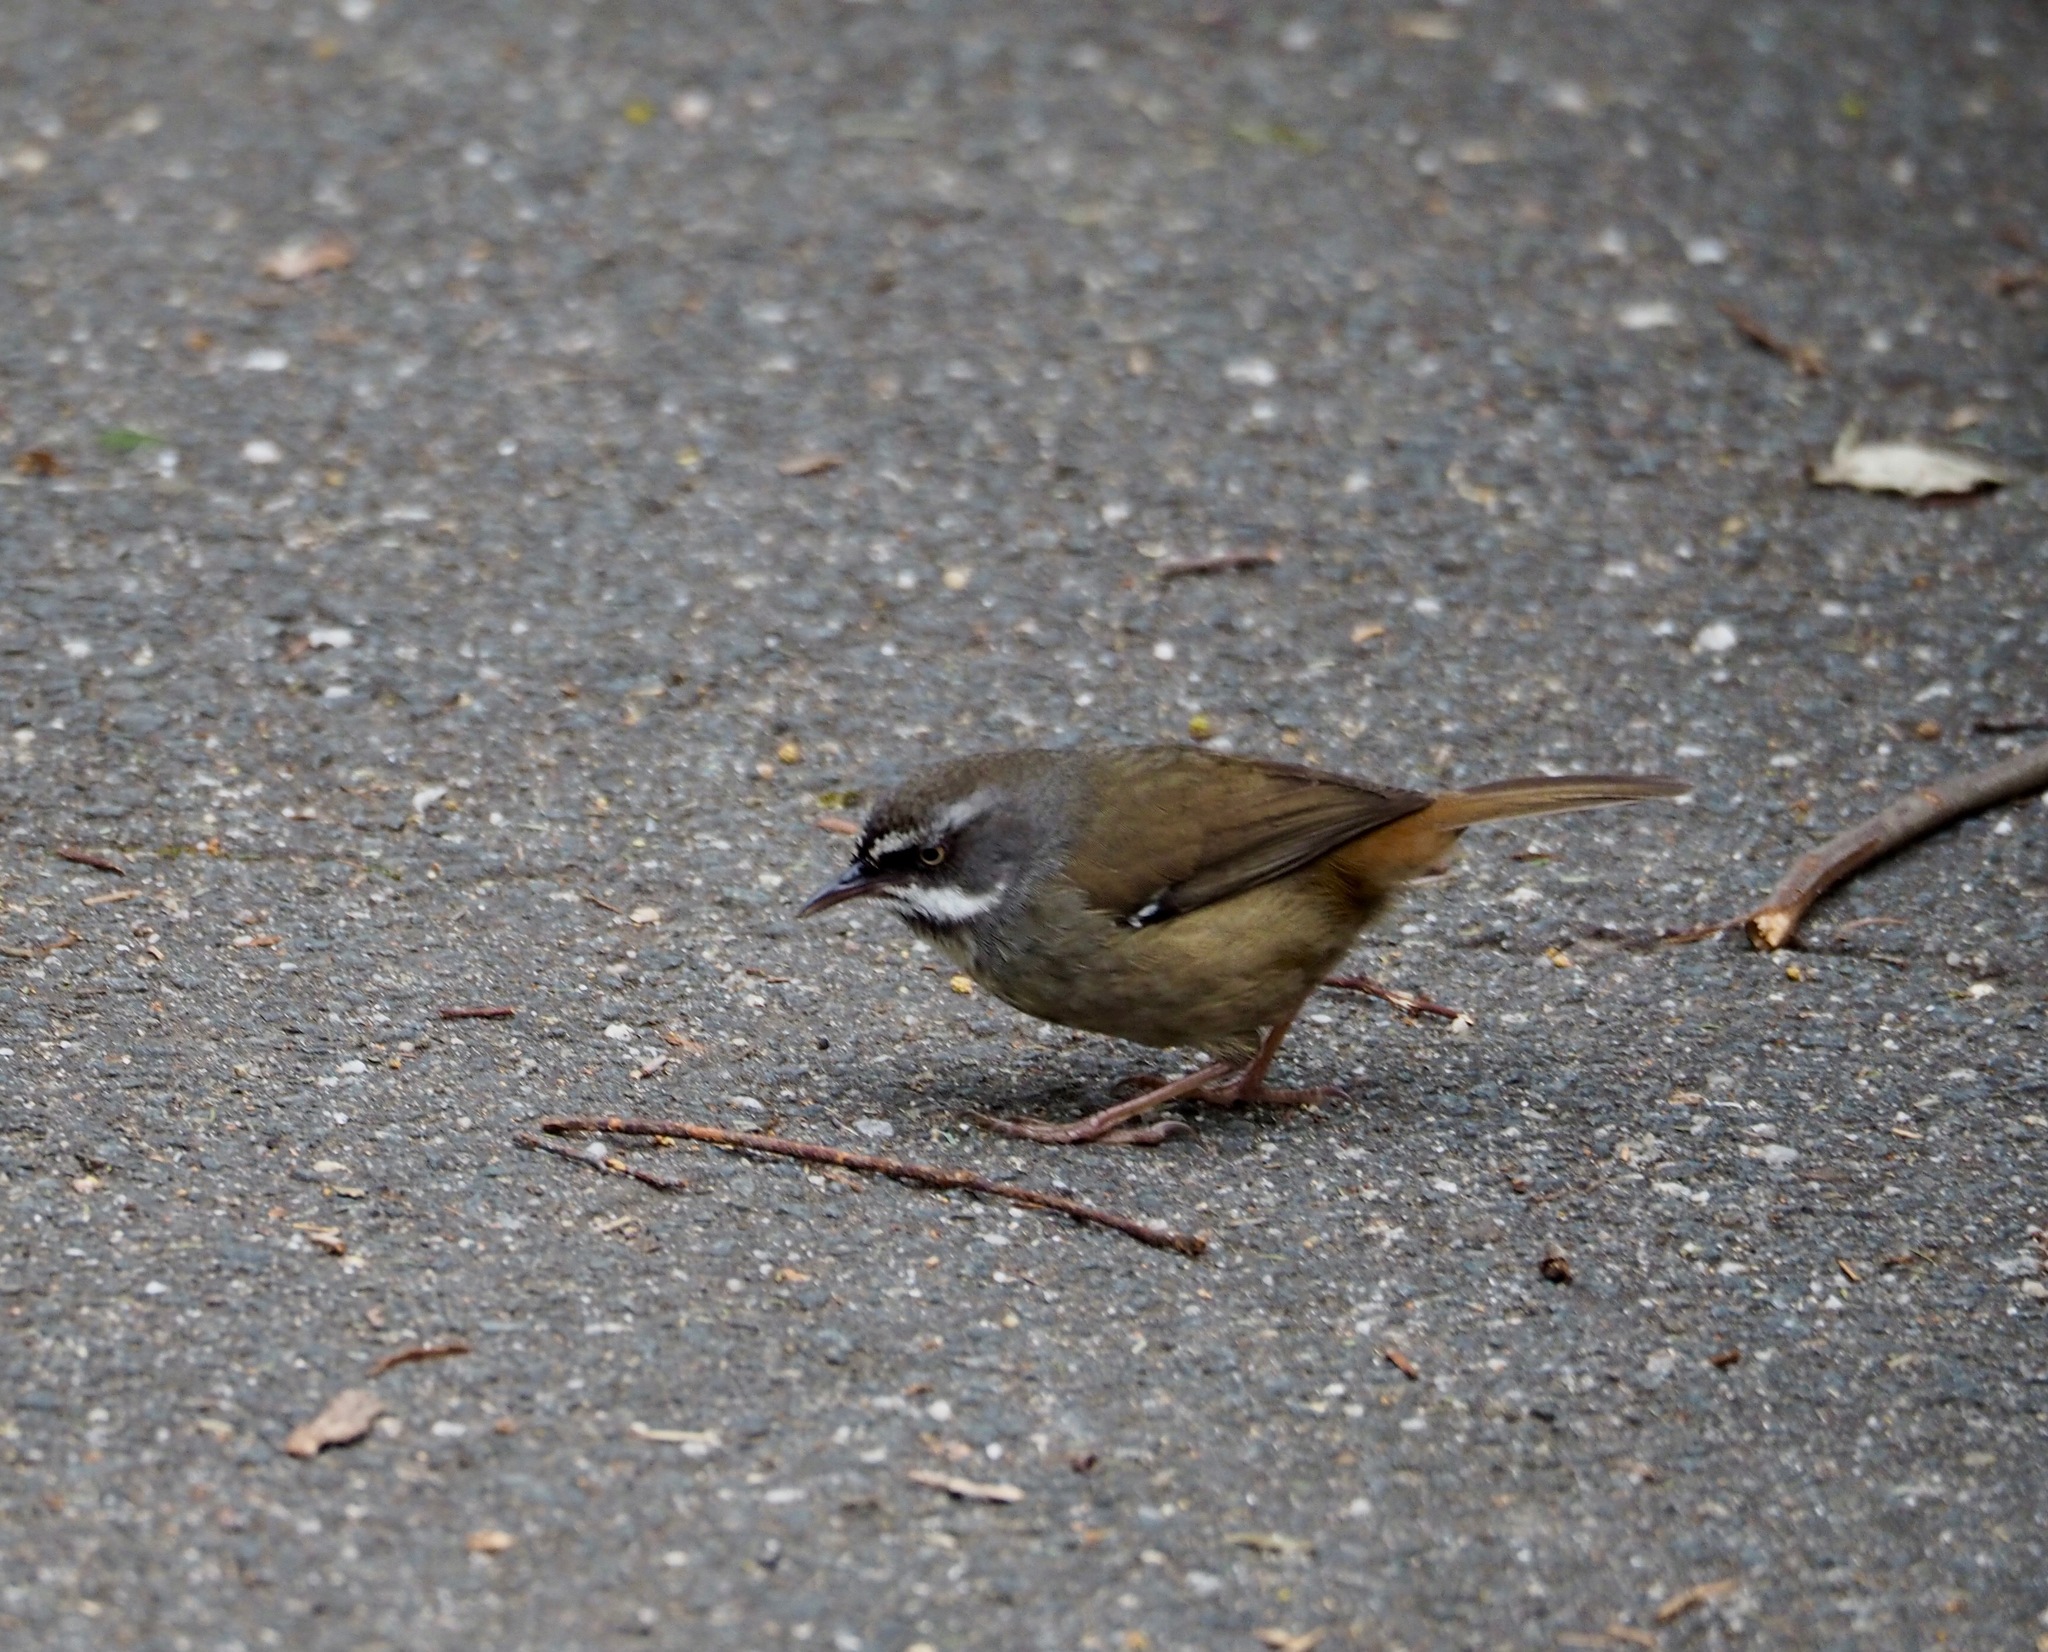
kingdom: Animalia
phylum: Chordata
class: Aves
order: Passeriformes
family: Acanthizidae
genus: Sericornis
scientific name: Sericornis frontalis
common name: White-browed scrubwren
